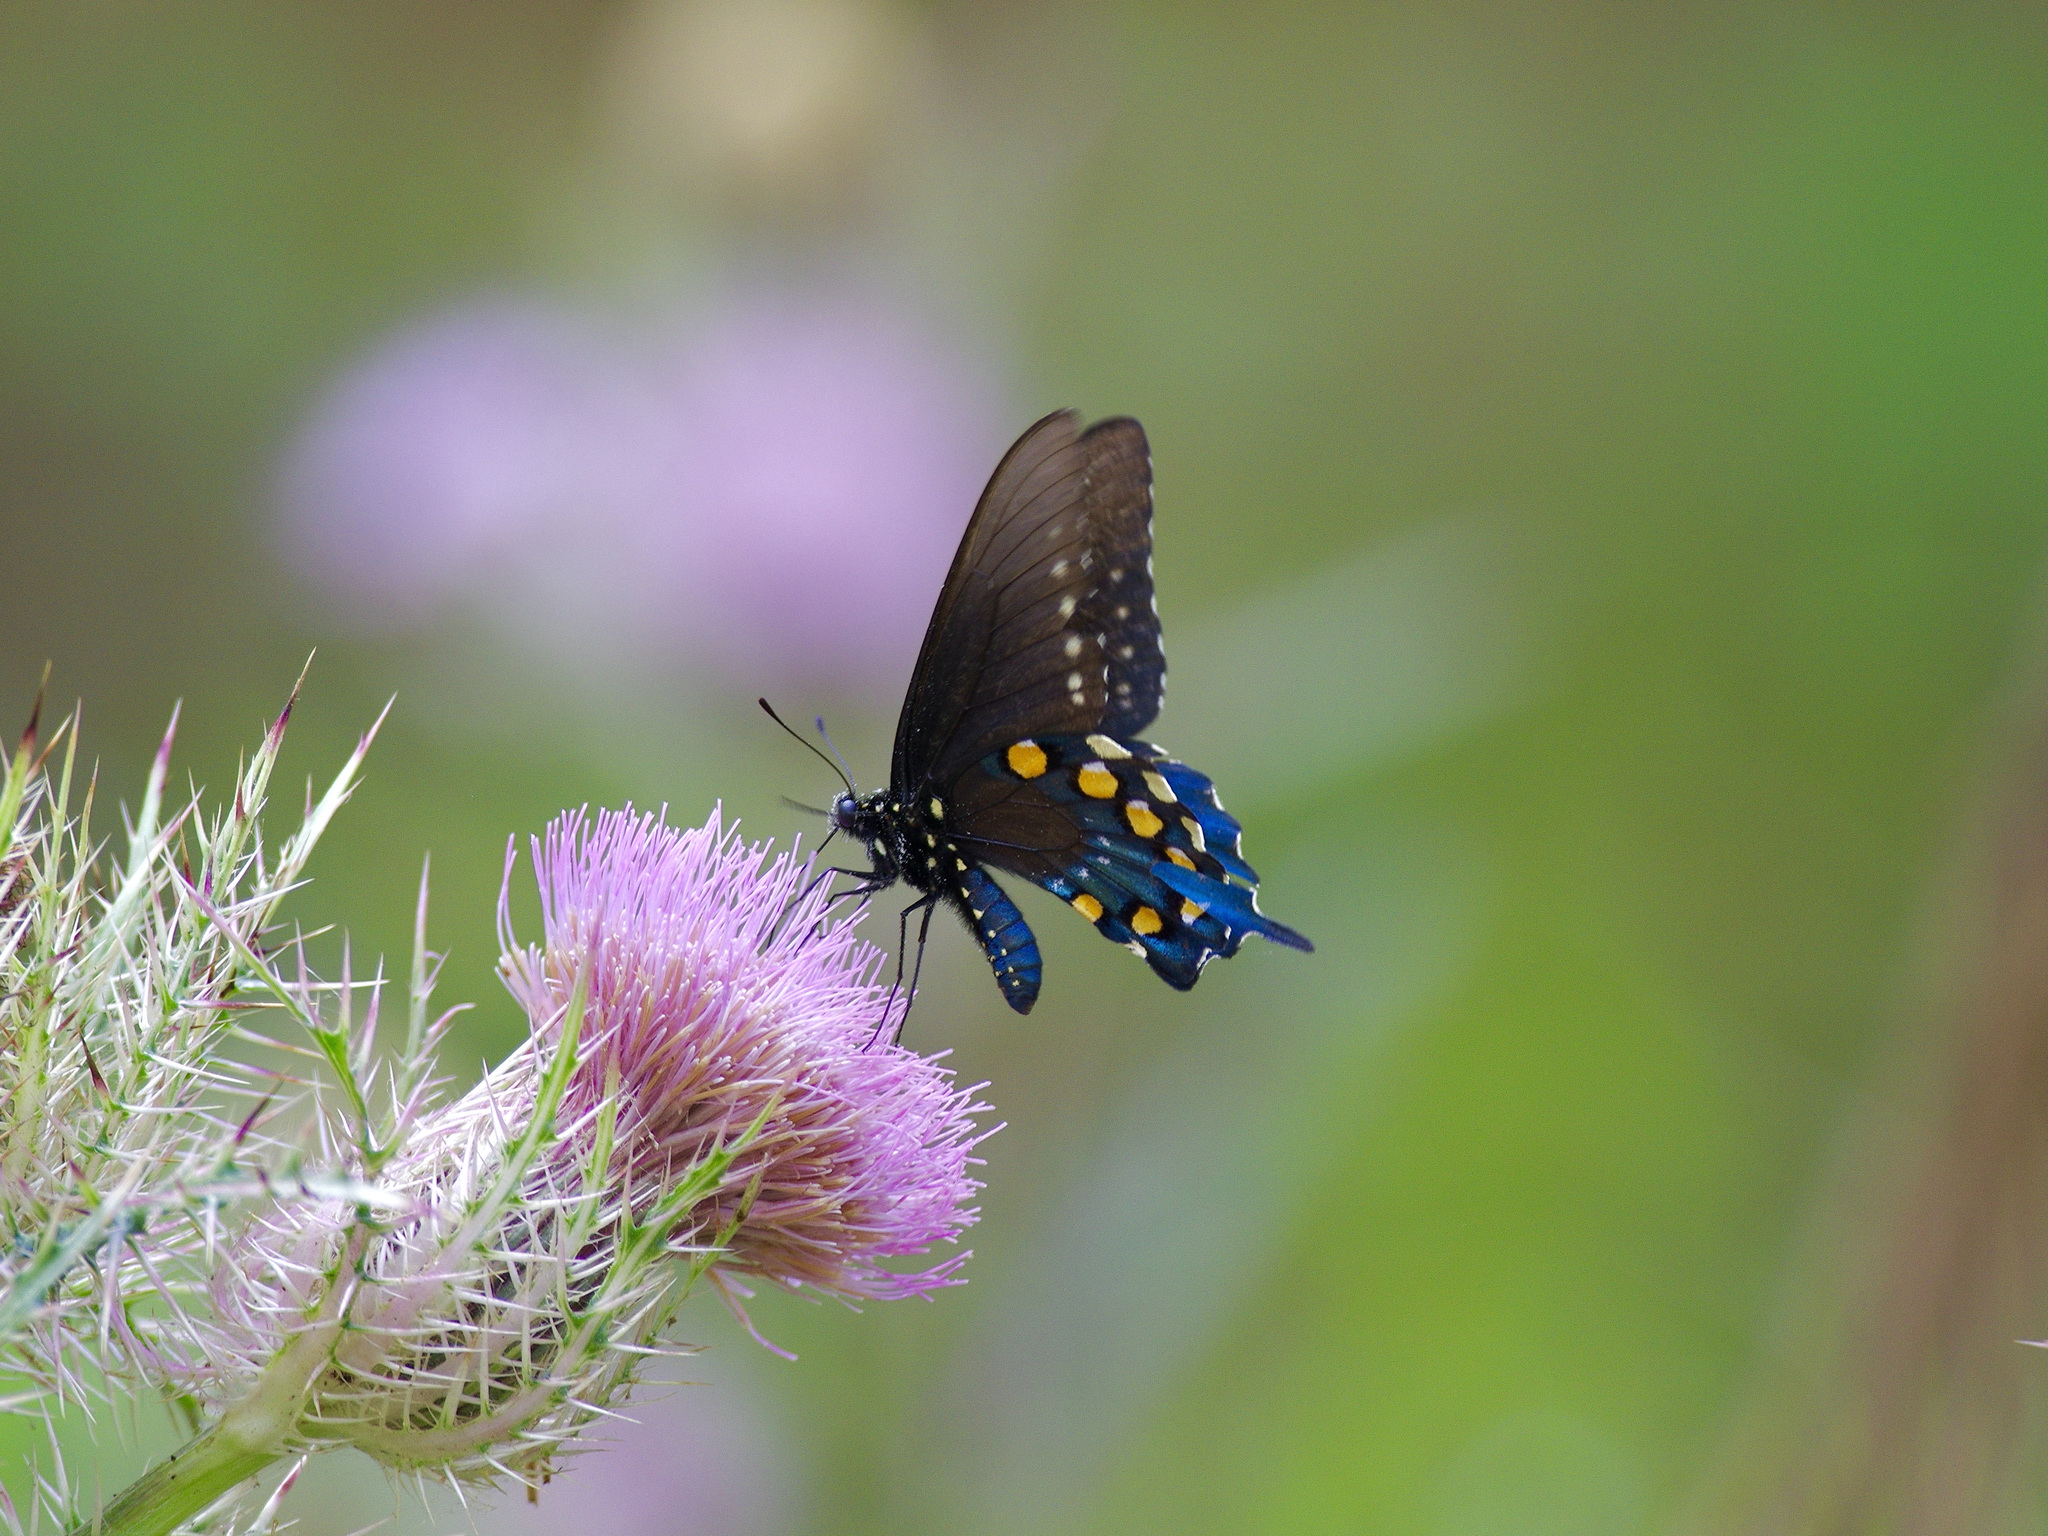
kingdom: Animalia
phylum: Arthropoda
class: Insecta
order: Lepidoptera
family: Papilionidae
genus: Battus
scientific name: Battus philenor
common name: Pipevine swallowtail
